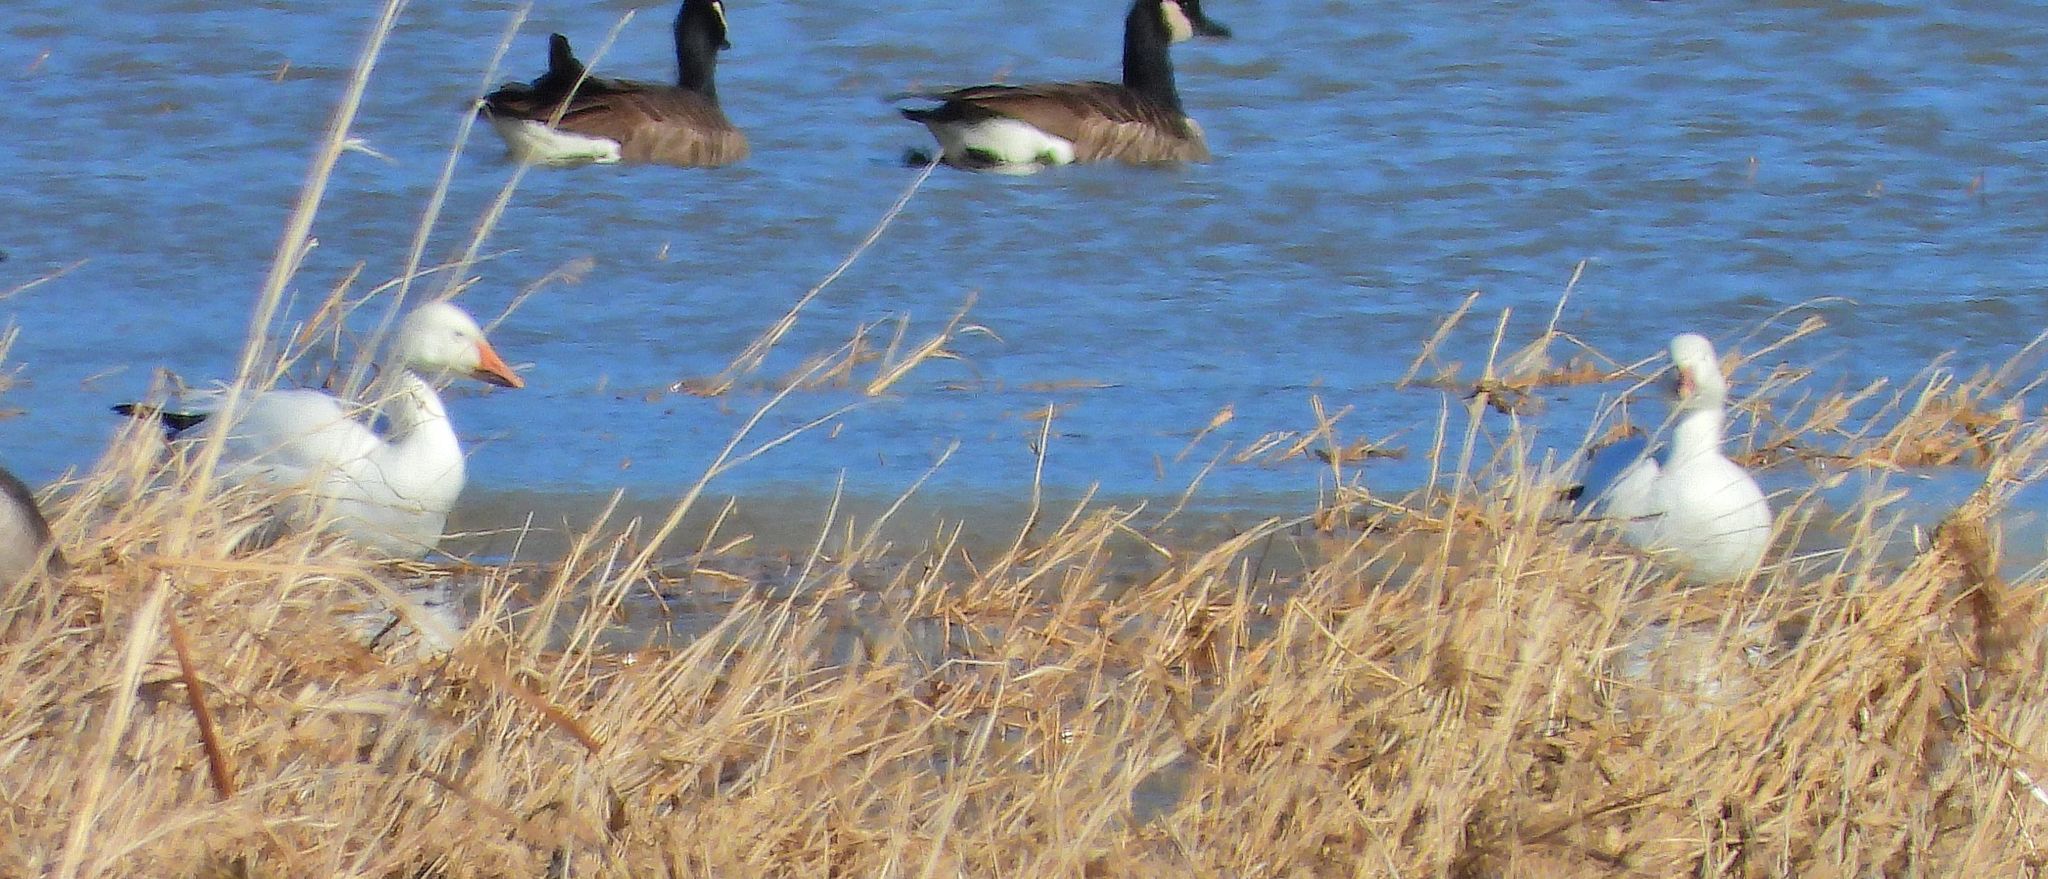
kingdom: Animalia
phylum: Chordata
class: Aves
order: Anseriformes
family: Anatidae
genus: Anser
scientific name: Anser caerulescens
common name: Snow goose
